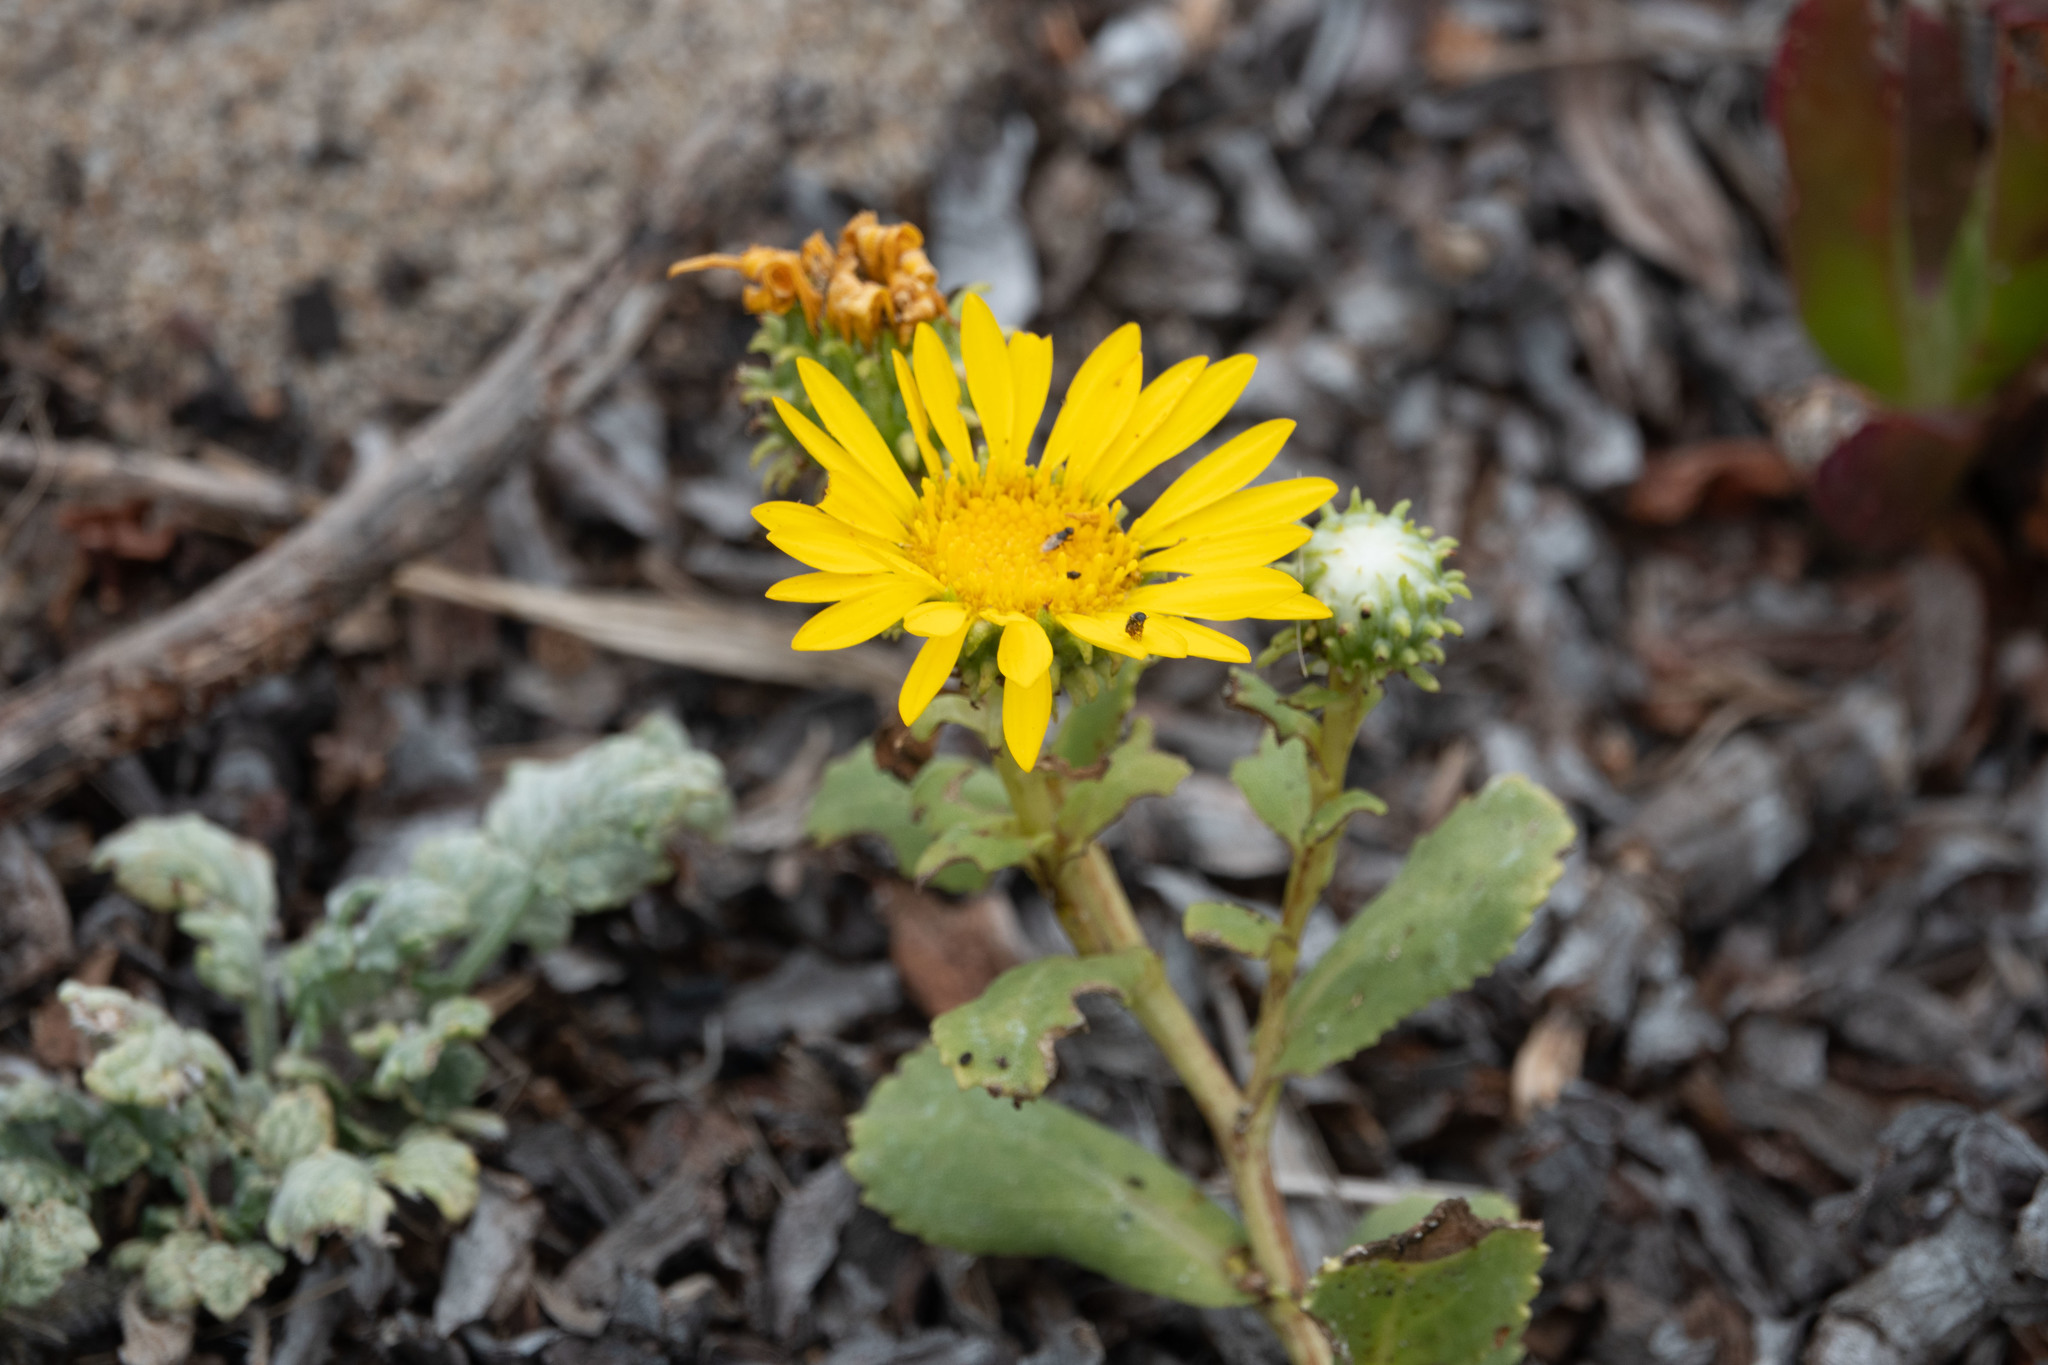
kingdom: Plantae
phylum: Tracheophyta
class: Magnoliopsida
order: Asterales
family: Asteraceae
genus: Grindelia
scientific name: Grindelia hirsutula
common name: Hairy gumweed
